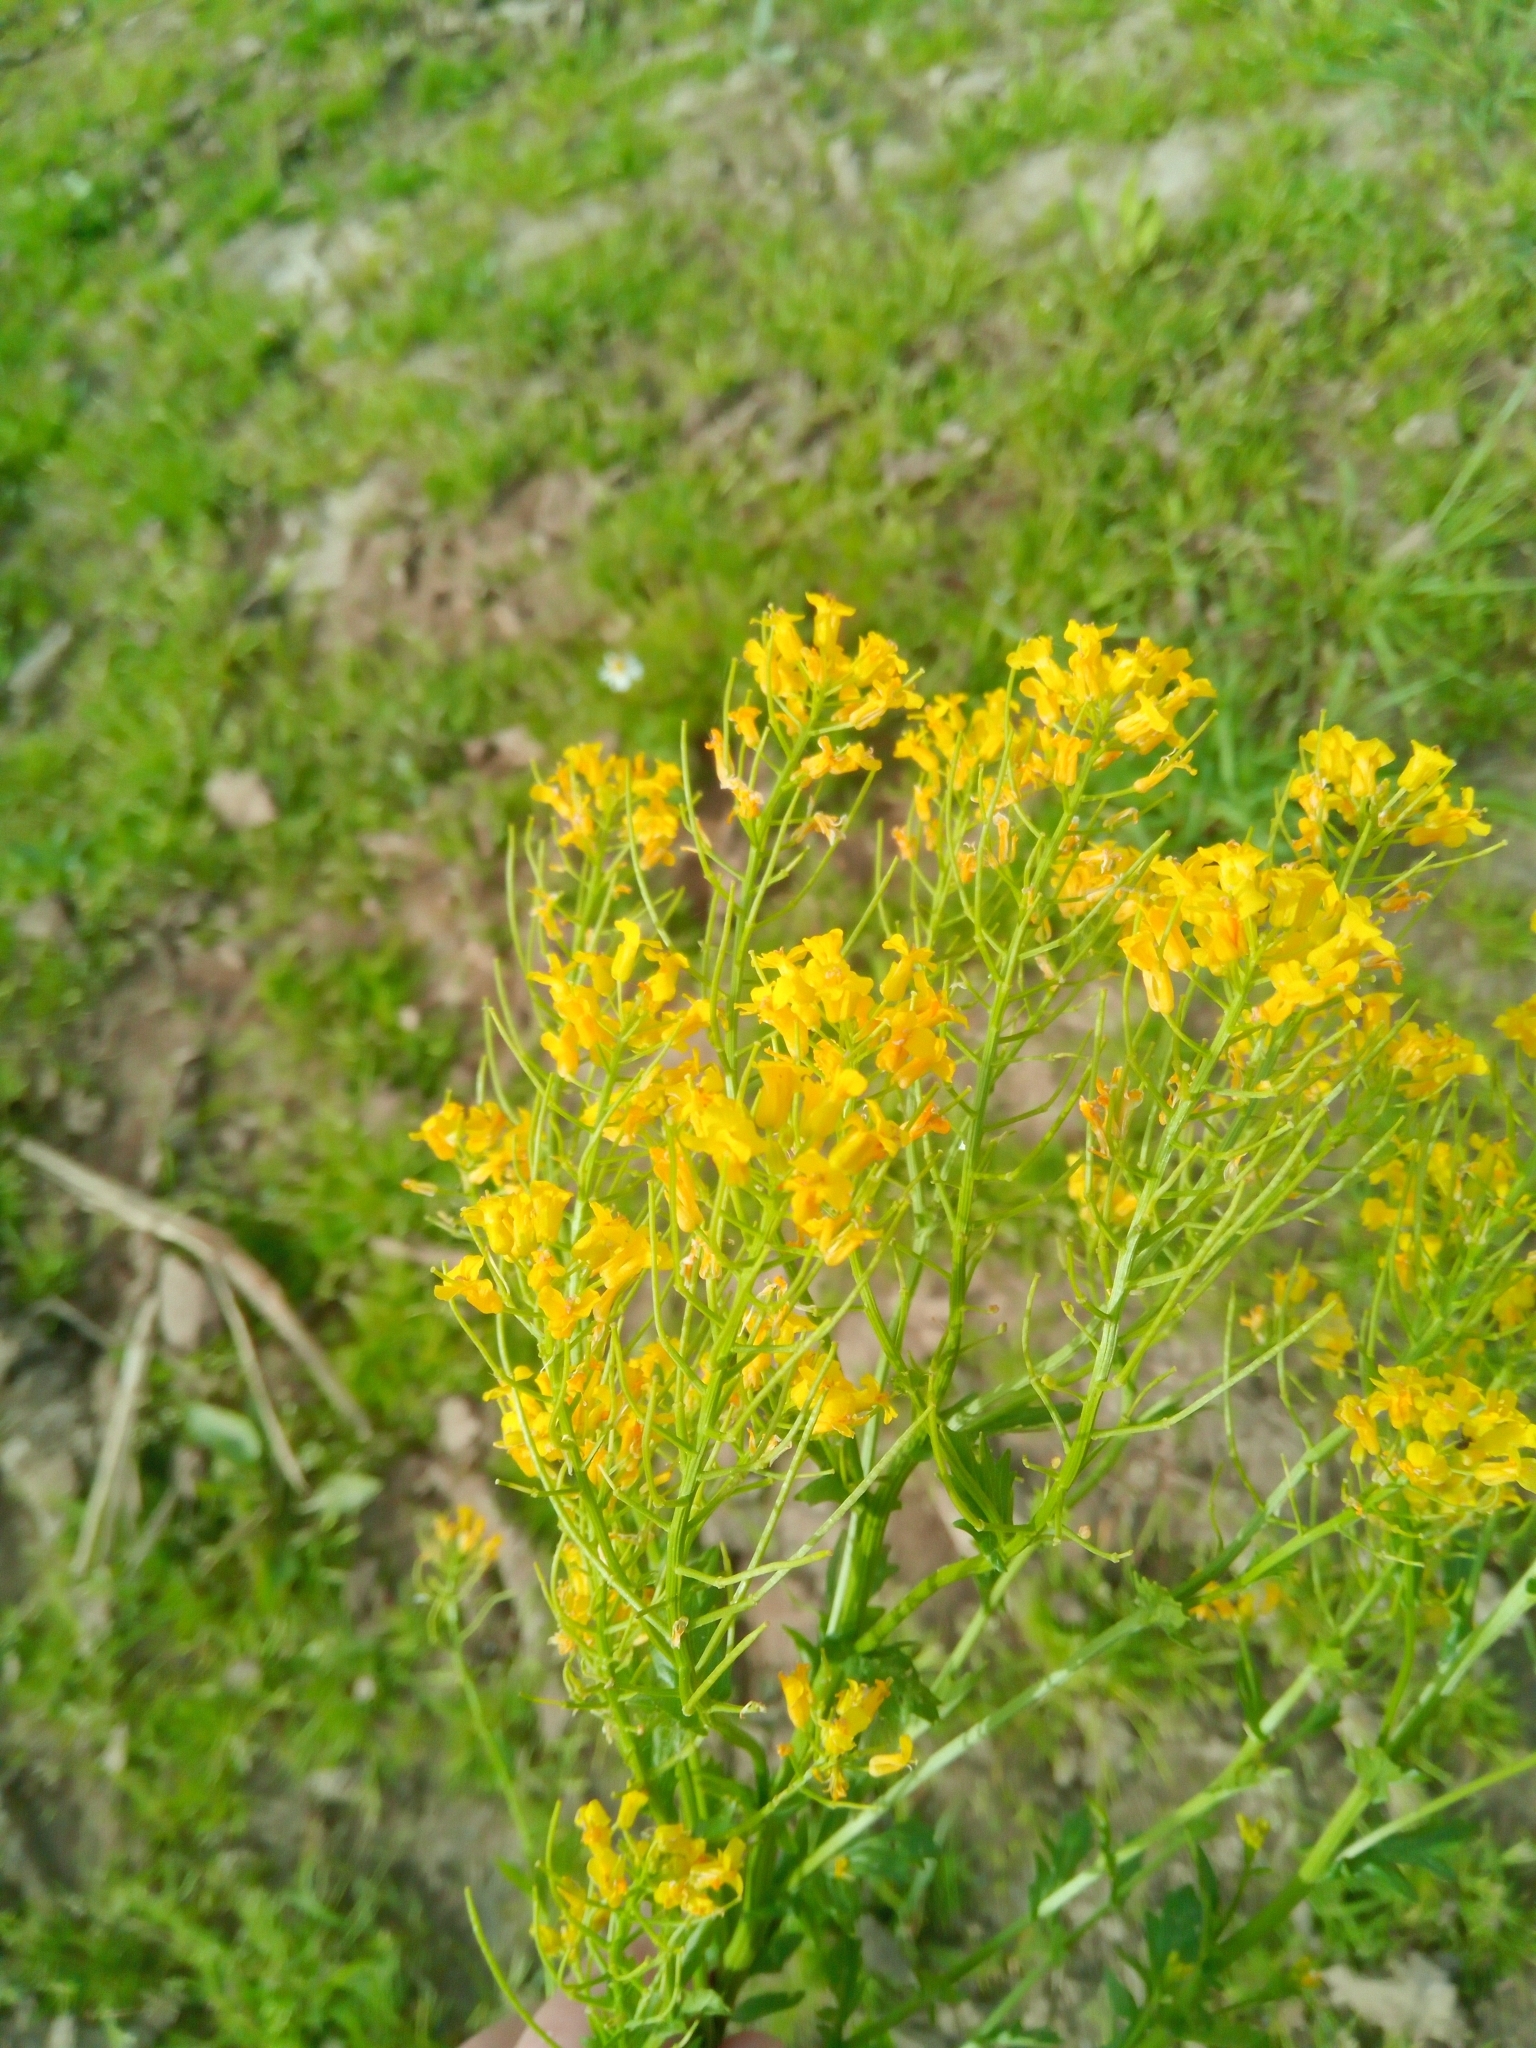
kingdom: Plantae
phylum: Tracheophyta
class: Magnoliopsida
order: Brassicales
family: Brassicaceae
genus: Barbarea
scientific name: Barbarea vulgaris
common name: Cressy-greens
